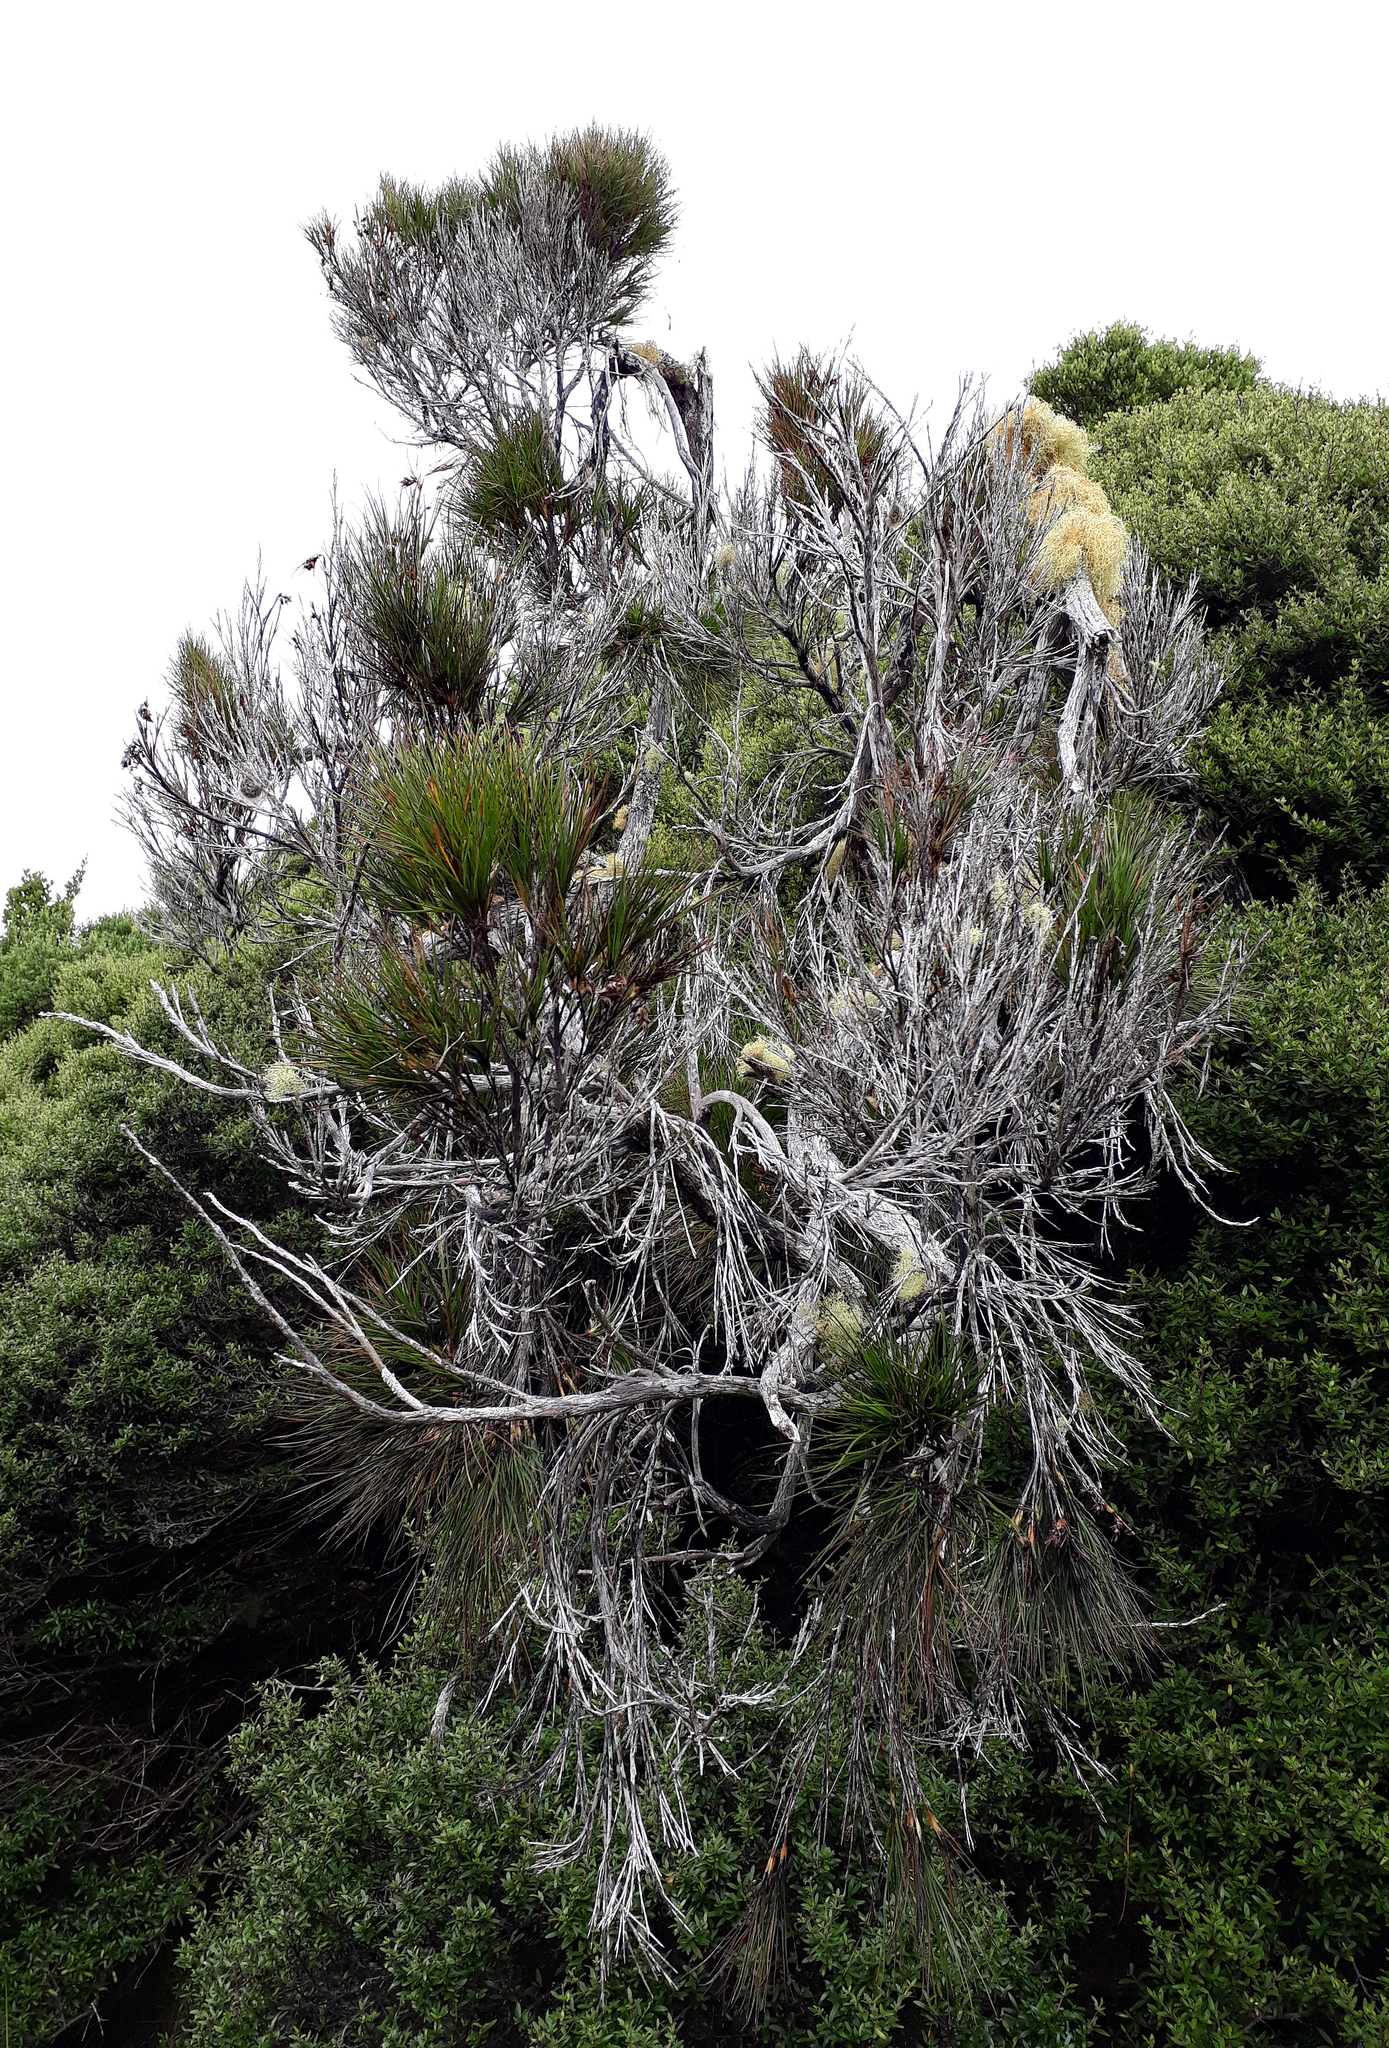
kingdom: Plantae
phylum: Tracheophyta
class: Magnoliopsida
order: Ericales
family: Ericaceae
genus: Dracophyllum
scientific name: Dracophyllum arboreum
